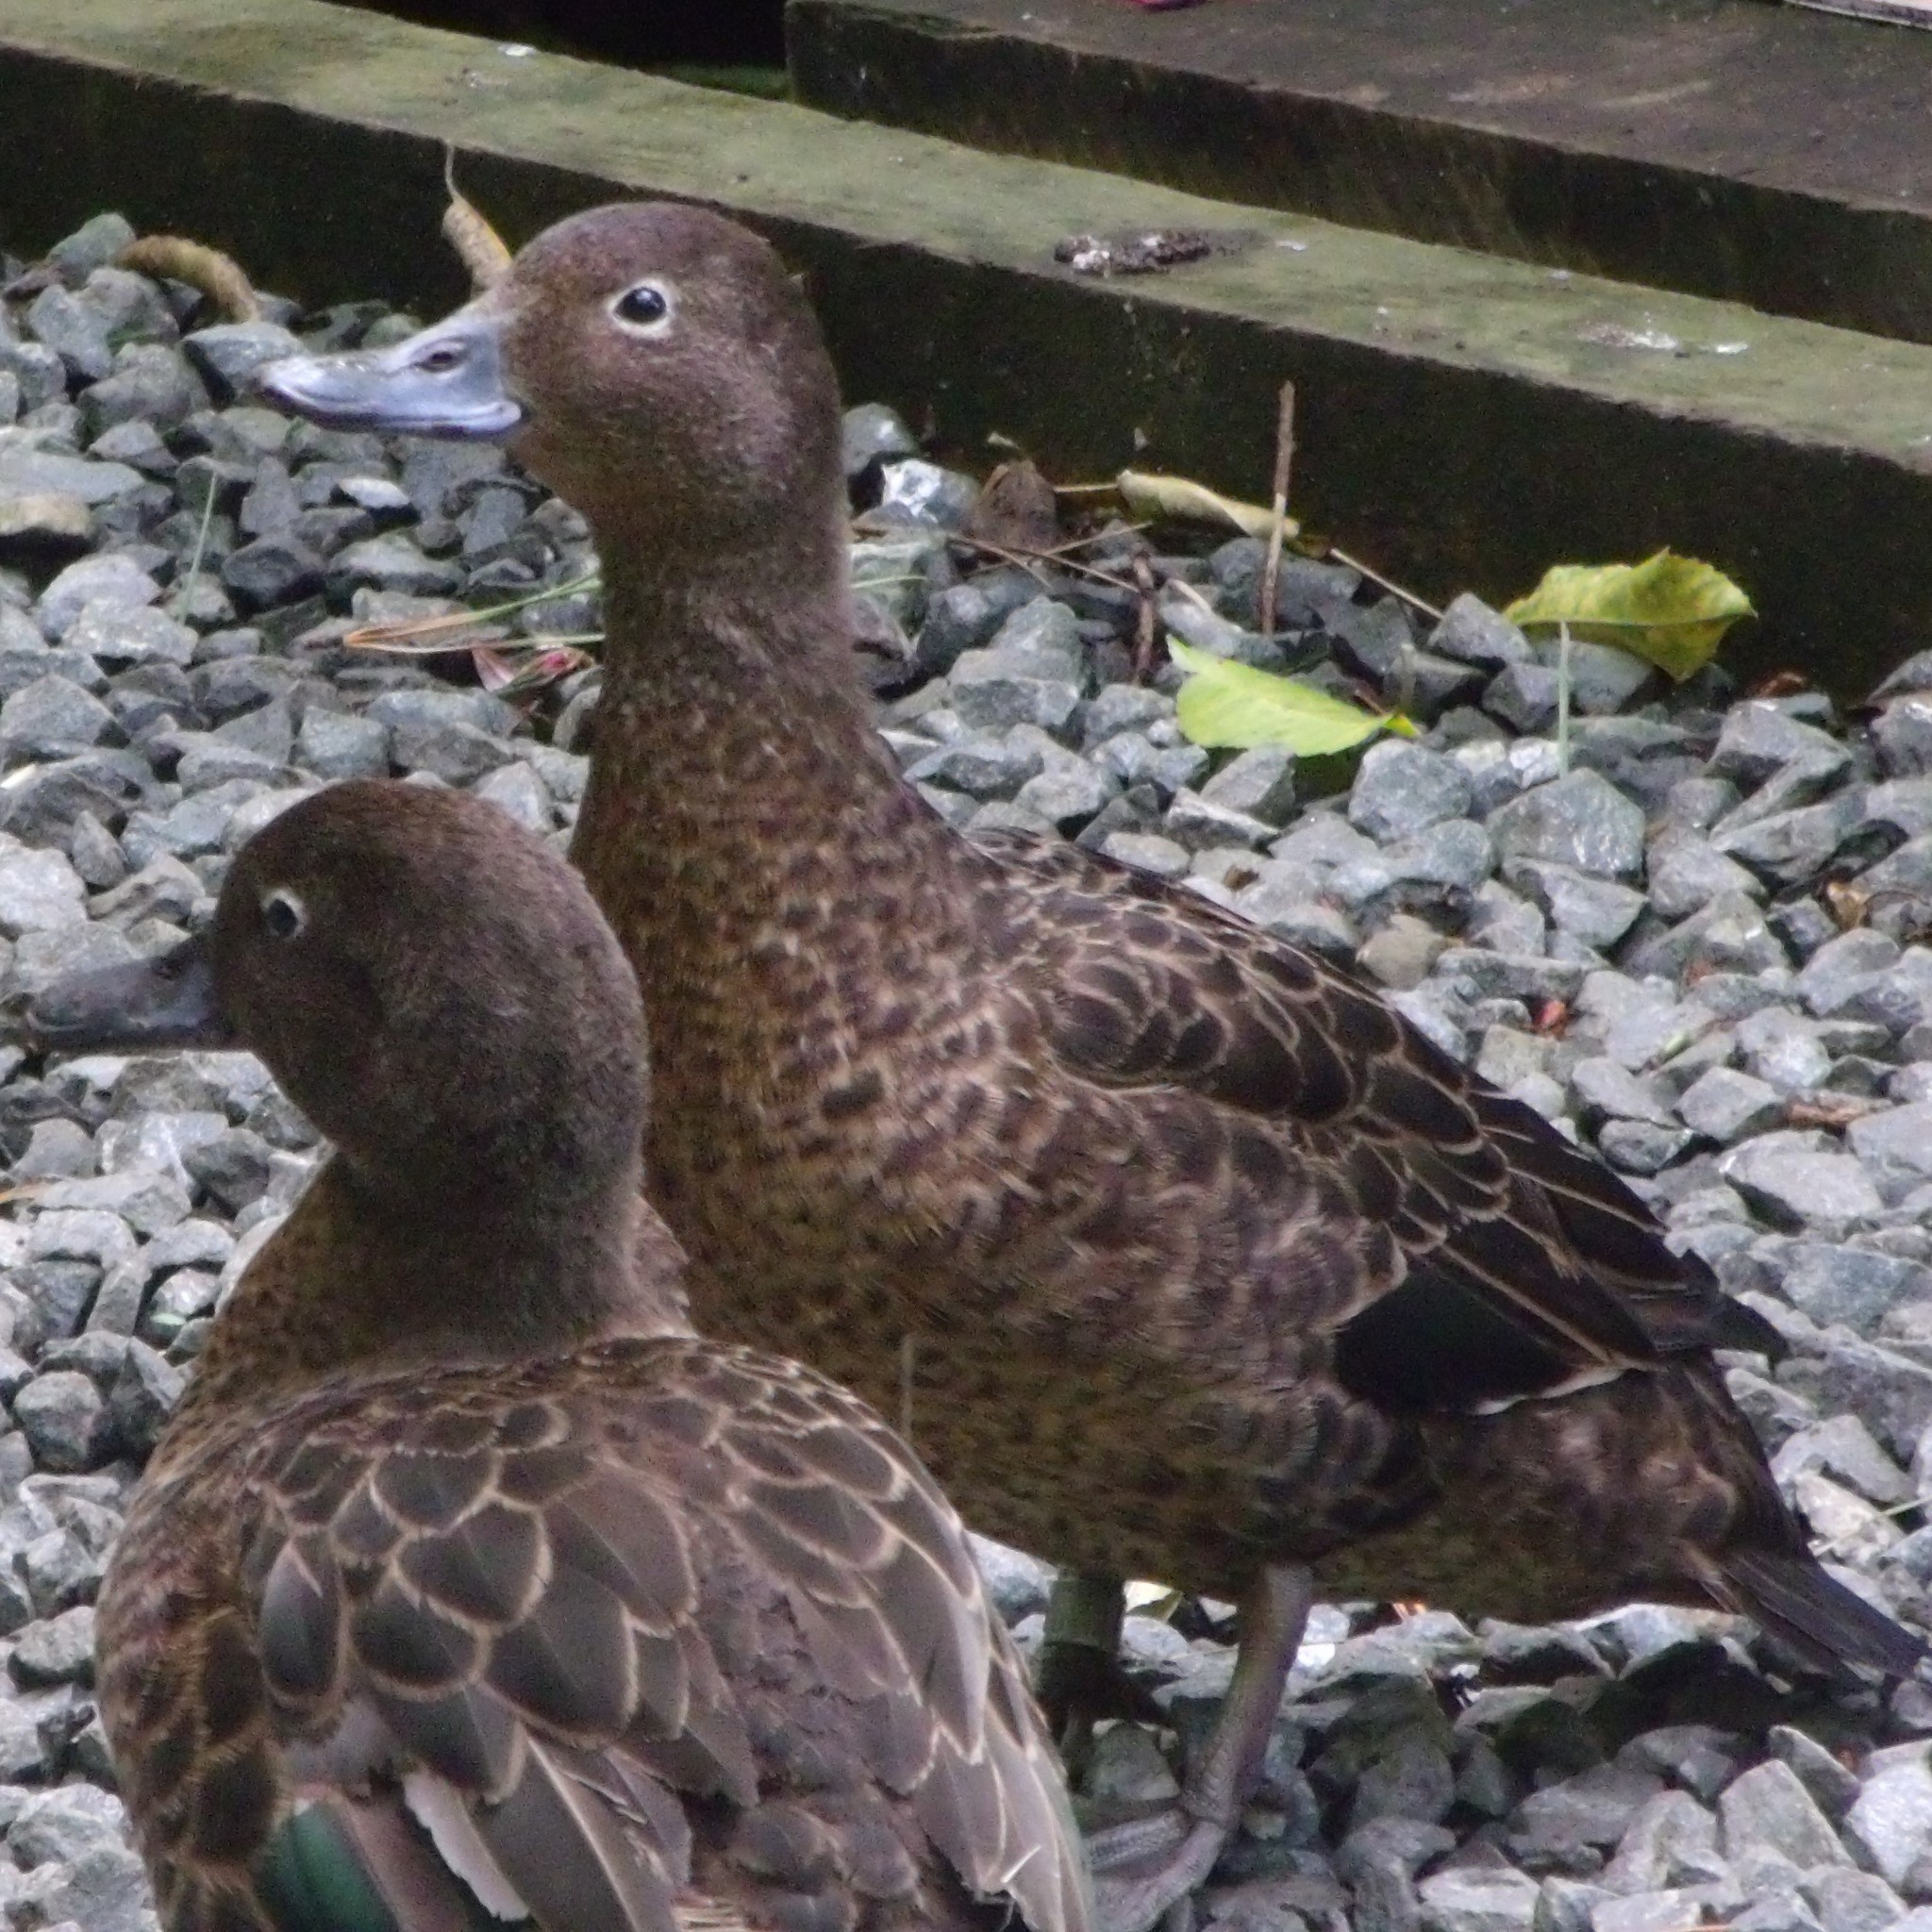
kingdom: Animalia
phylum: Chordata
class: Aves
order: Anseriformes
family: Anatidae
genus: Anas
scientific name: Anas chlorotis
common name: Brown teal
